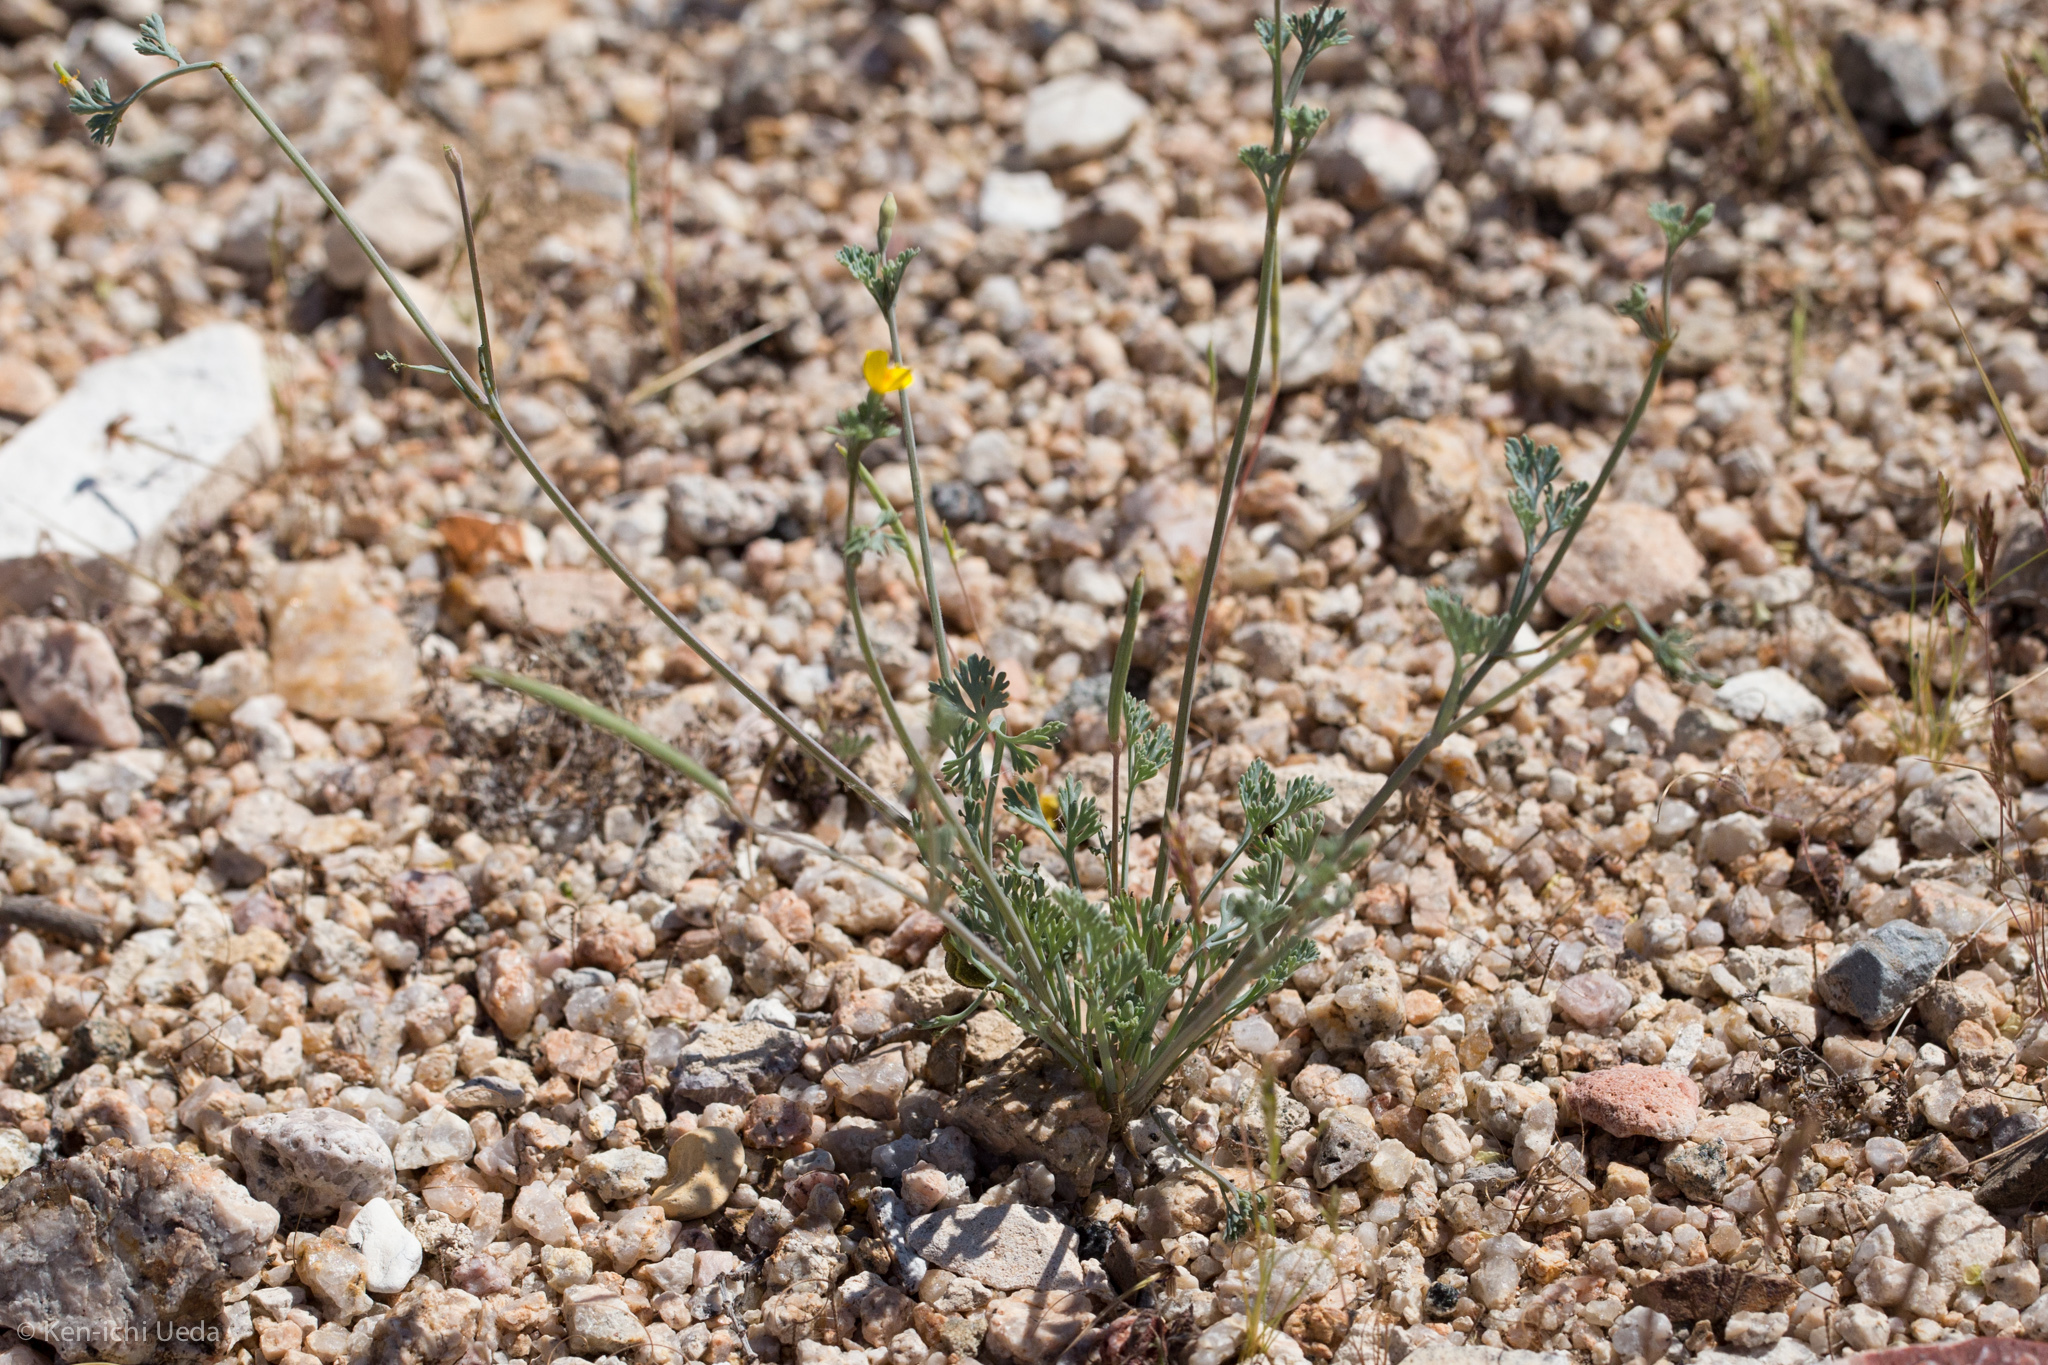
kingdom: Plantae
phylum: Tracheophyta
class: Magnoliopsida
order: Ranunculales
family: Papaveraceae
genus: Eschscholzia
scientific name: Eschscholzia minutiflora
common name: Small-flower california-poppy
